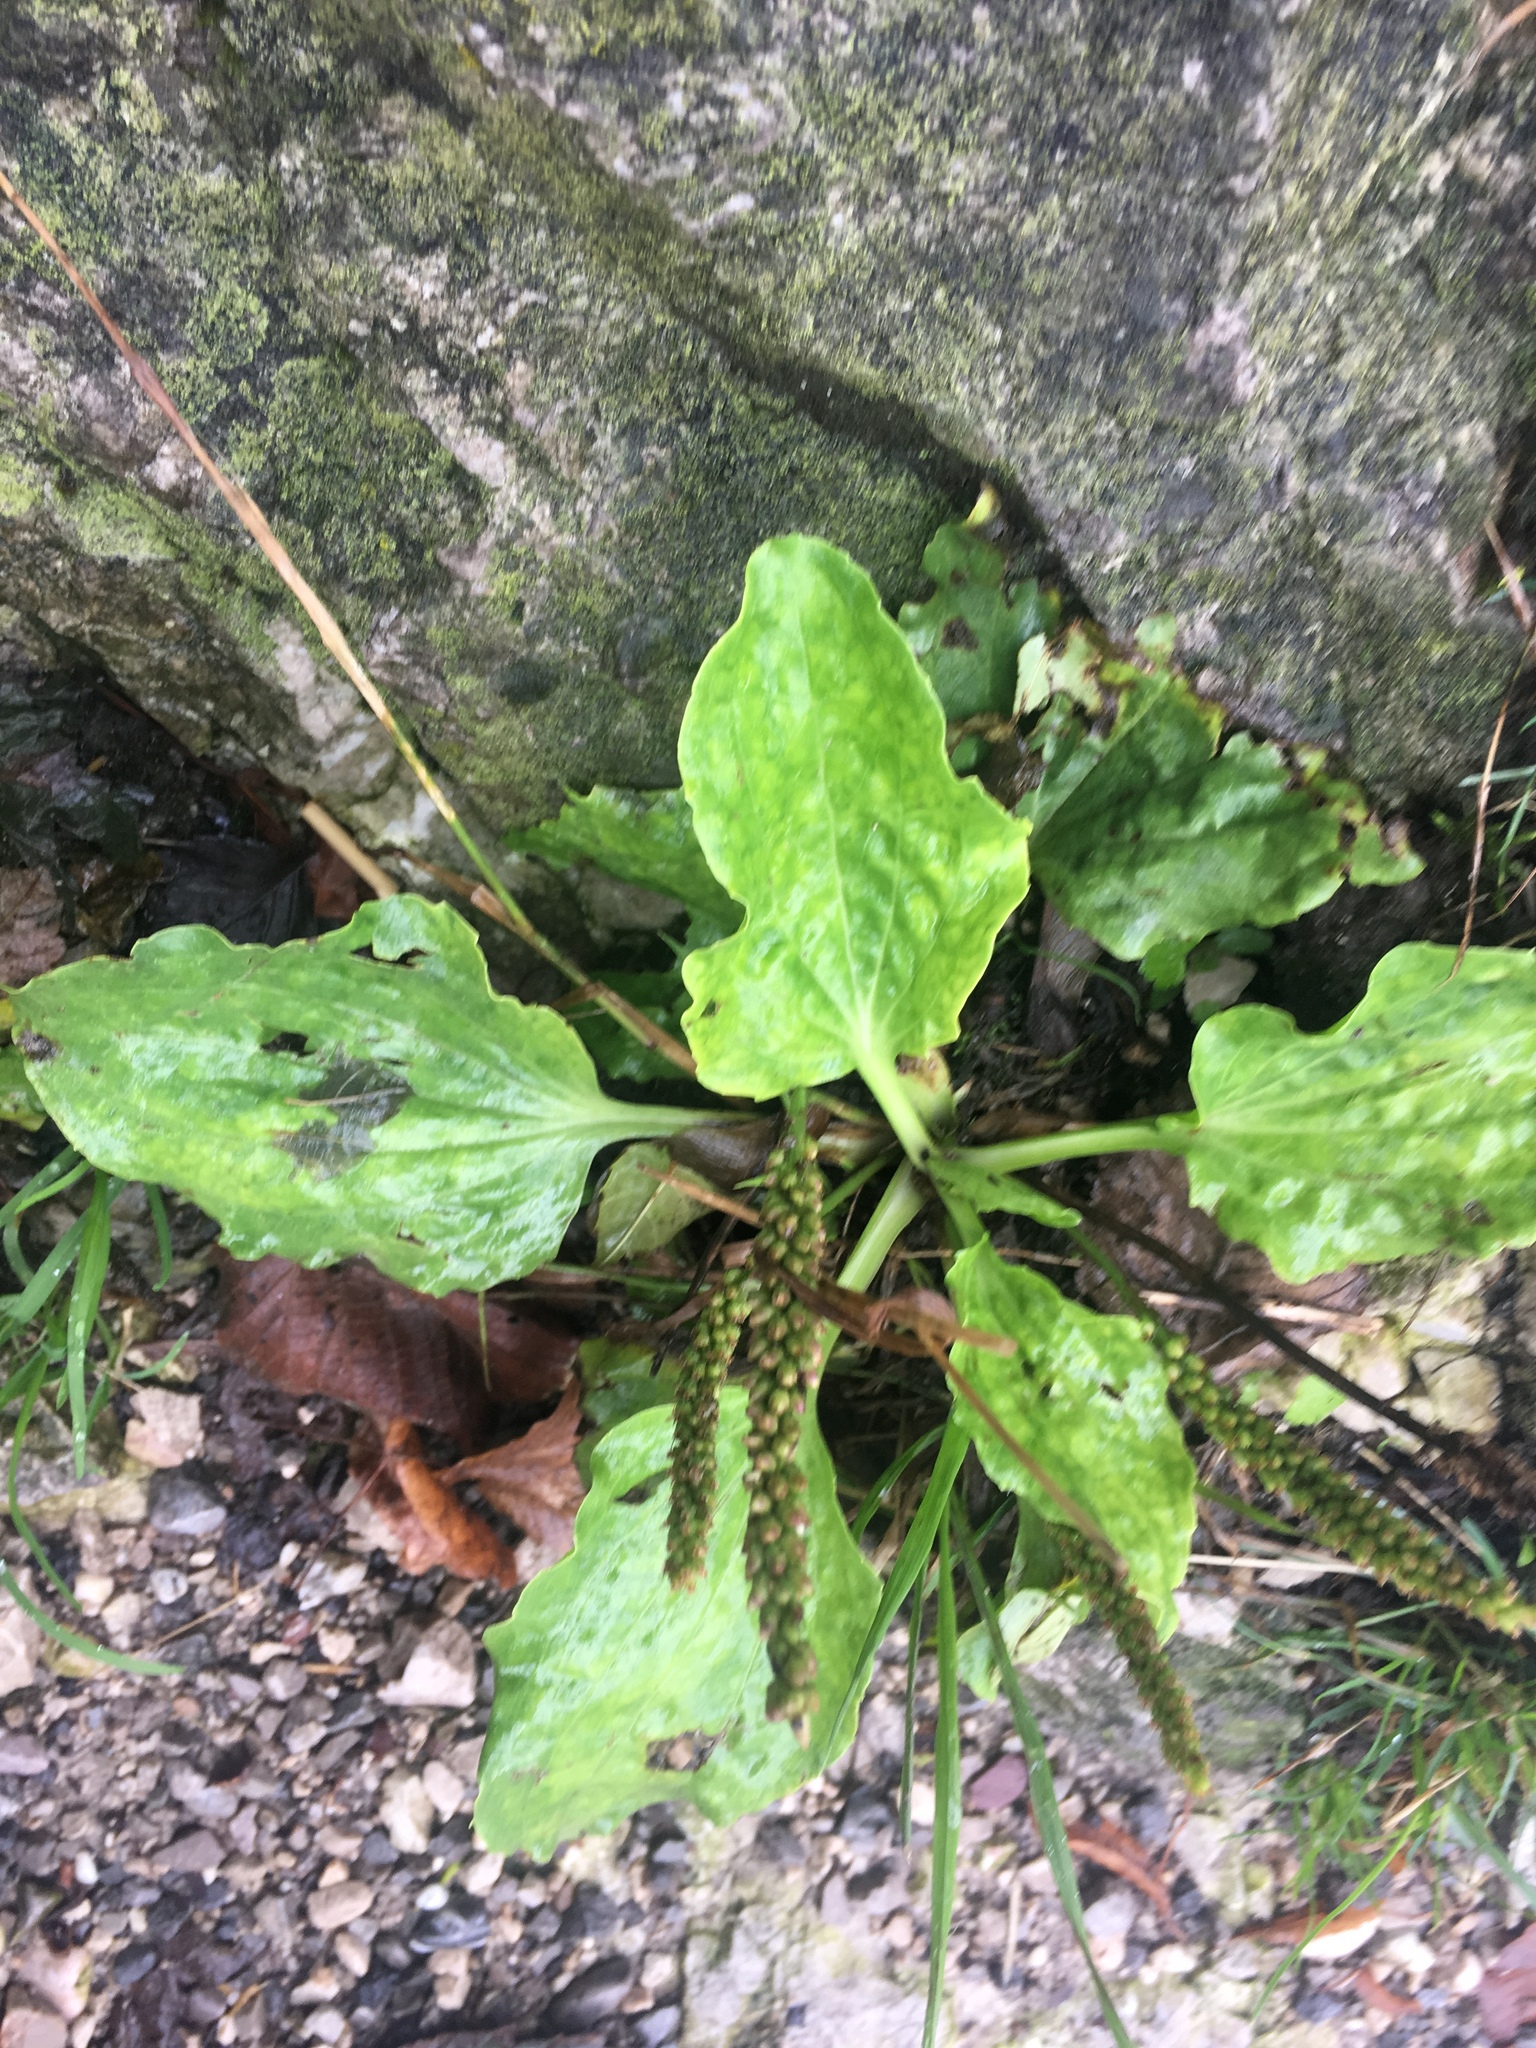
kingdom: Plantae
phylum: Tracheophyta
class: Magnoliopsida
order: Lamiales
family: Plantaginaceae
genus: Plantago
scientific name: Plantago major
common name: Common plantain
